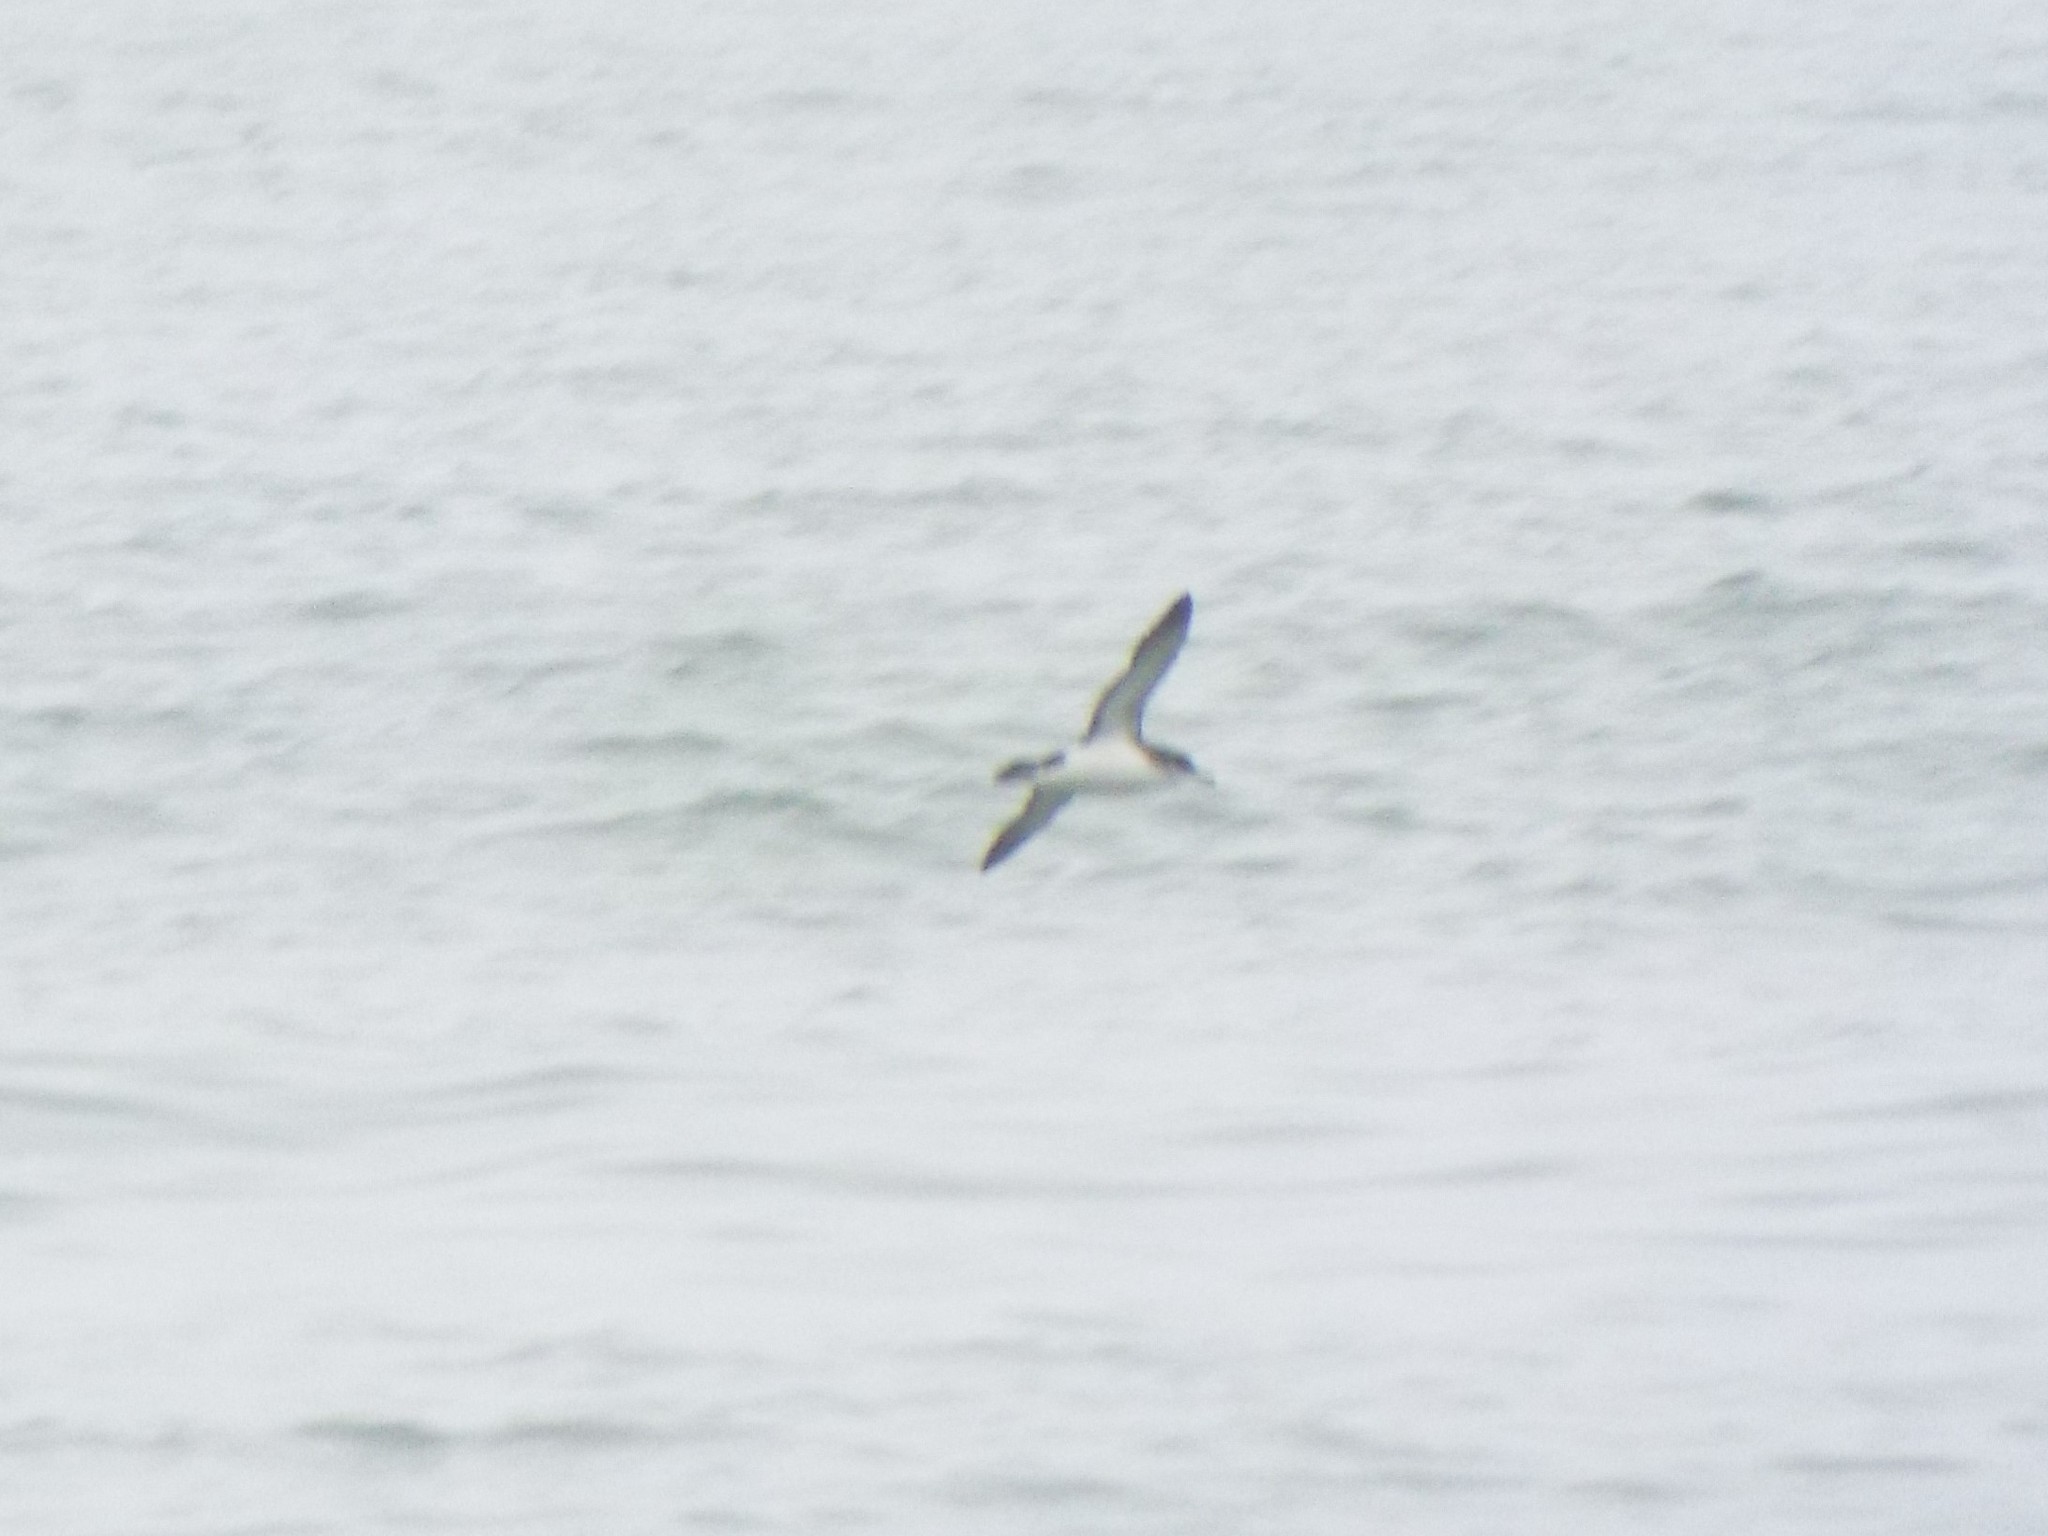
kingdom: Animalia
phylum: Chordata
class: Aves
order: Procellariiformes
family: Procellariidae
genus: Puffinus
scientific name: Puffinus puffinus
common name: Manx shearwater
